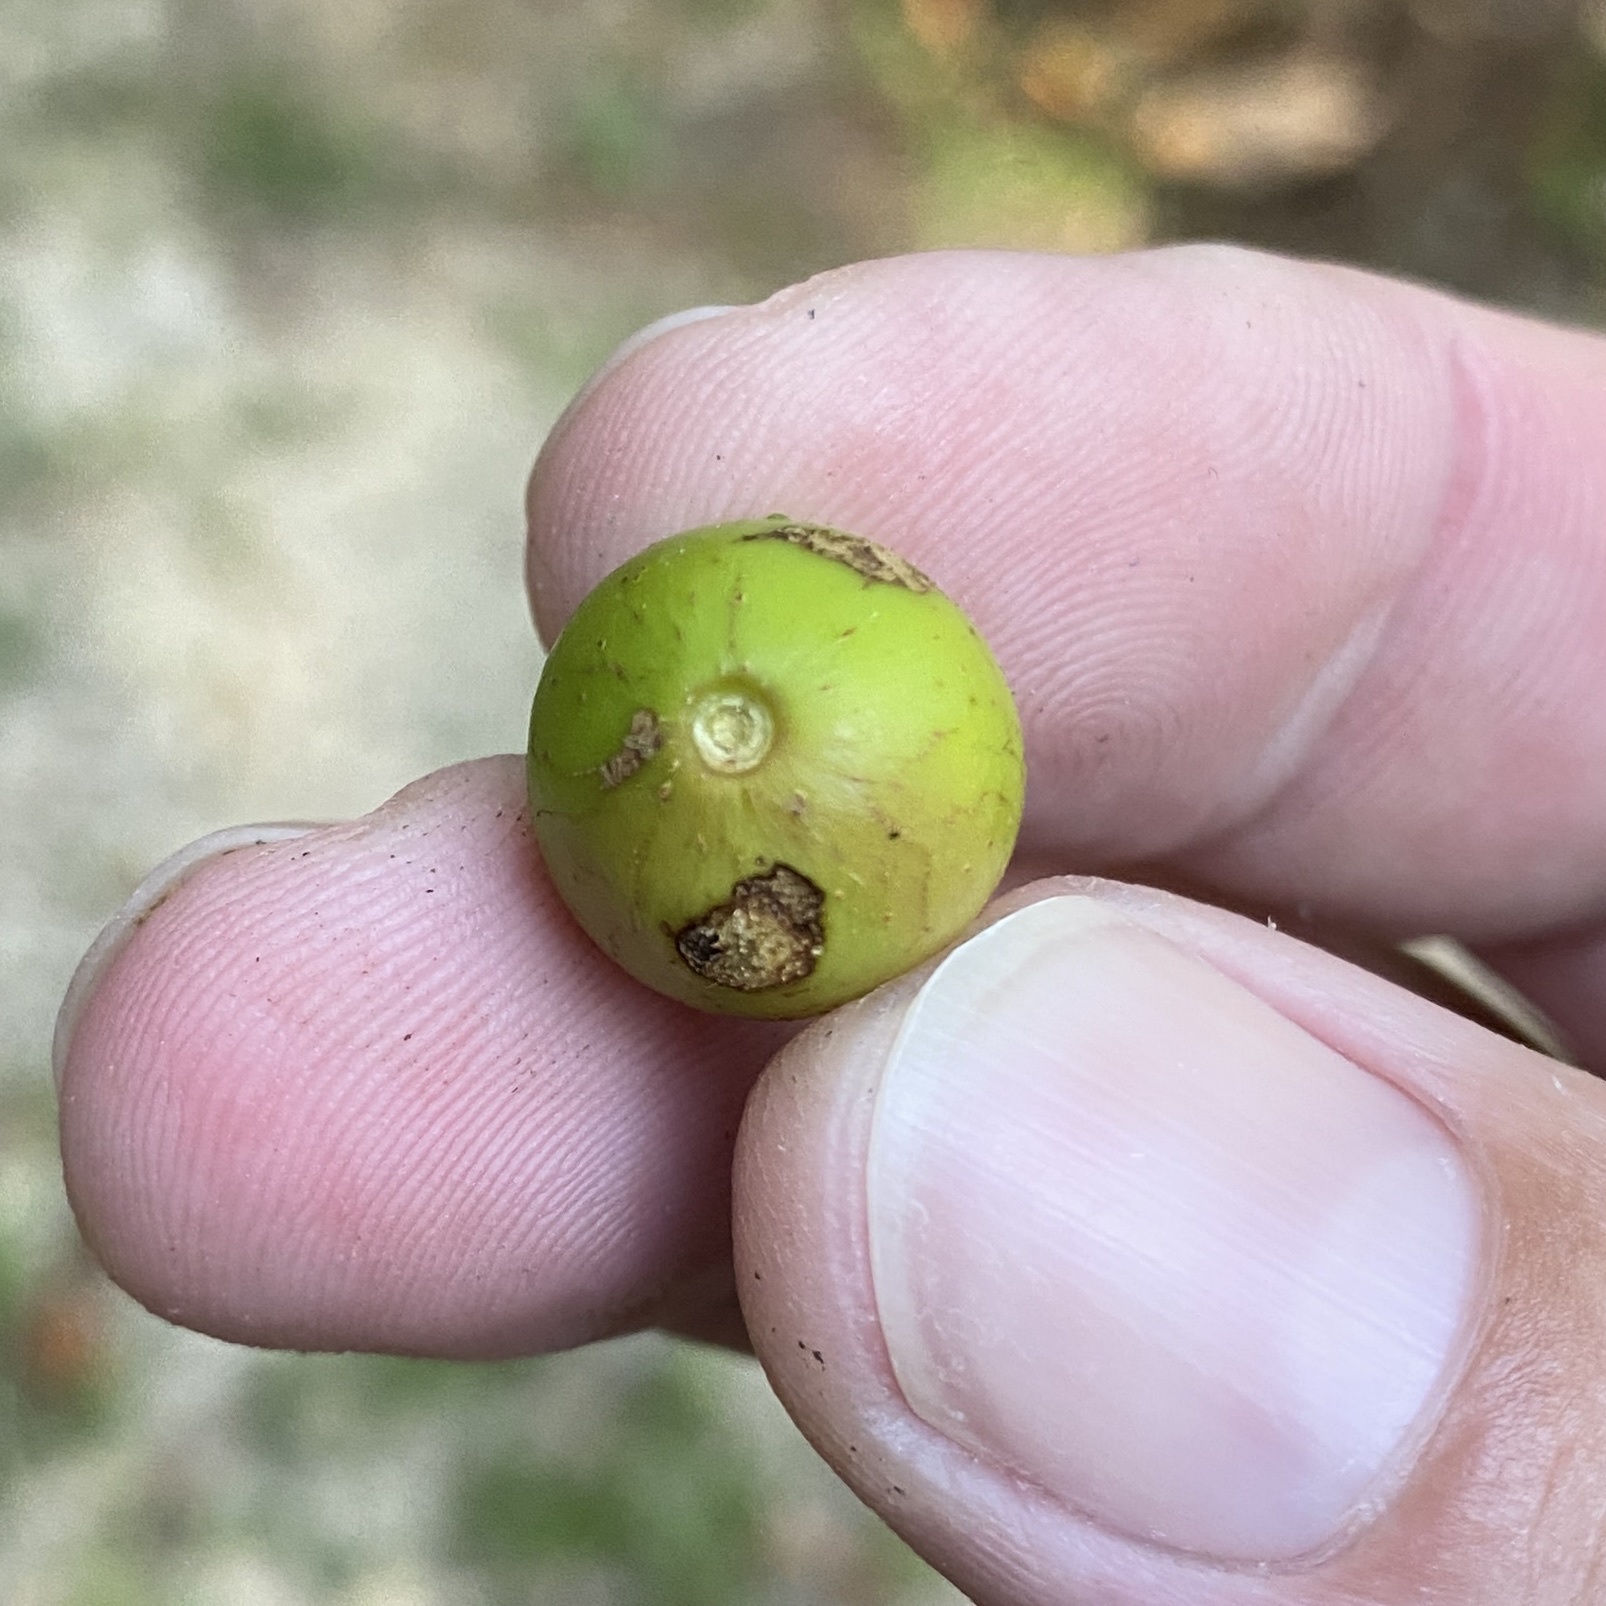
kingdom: Plantae
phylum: Tracheophyta
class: Magnoliopsida
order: Vitales
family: Vitaceae
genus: Vitis
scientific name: Vitis rotundifolia
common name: Muscadine grape
